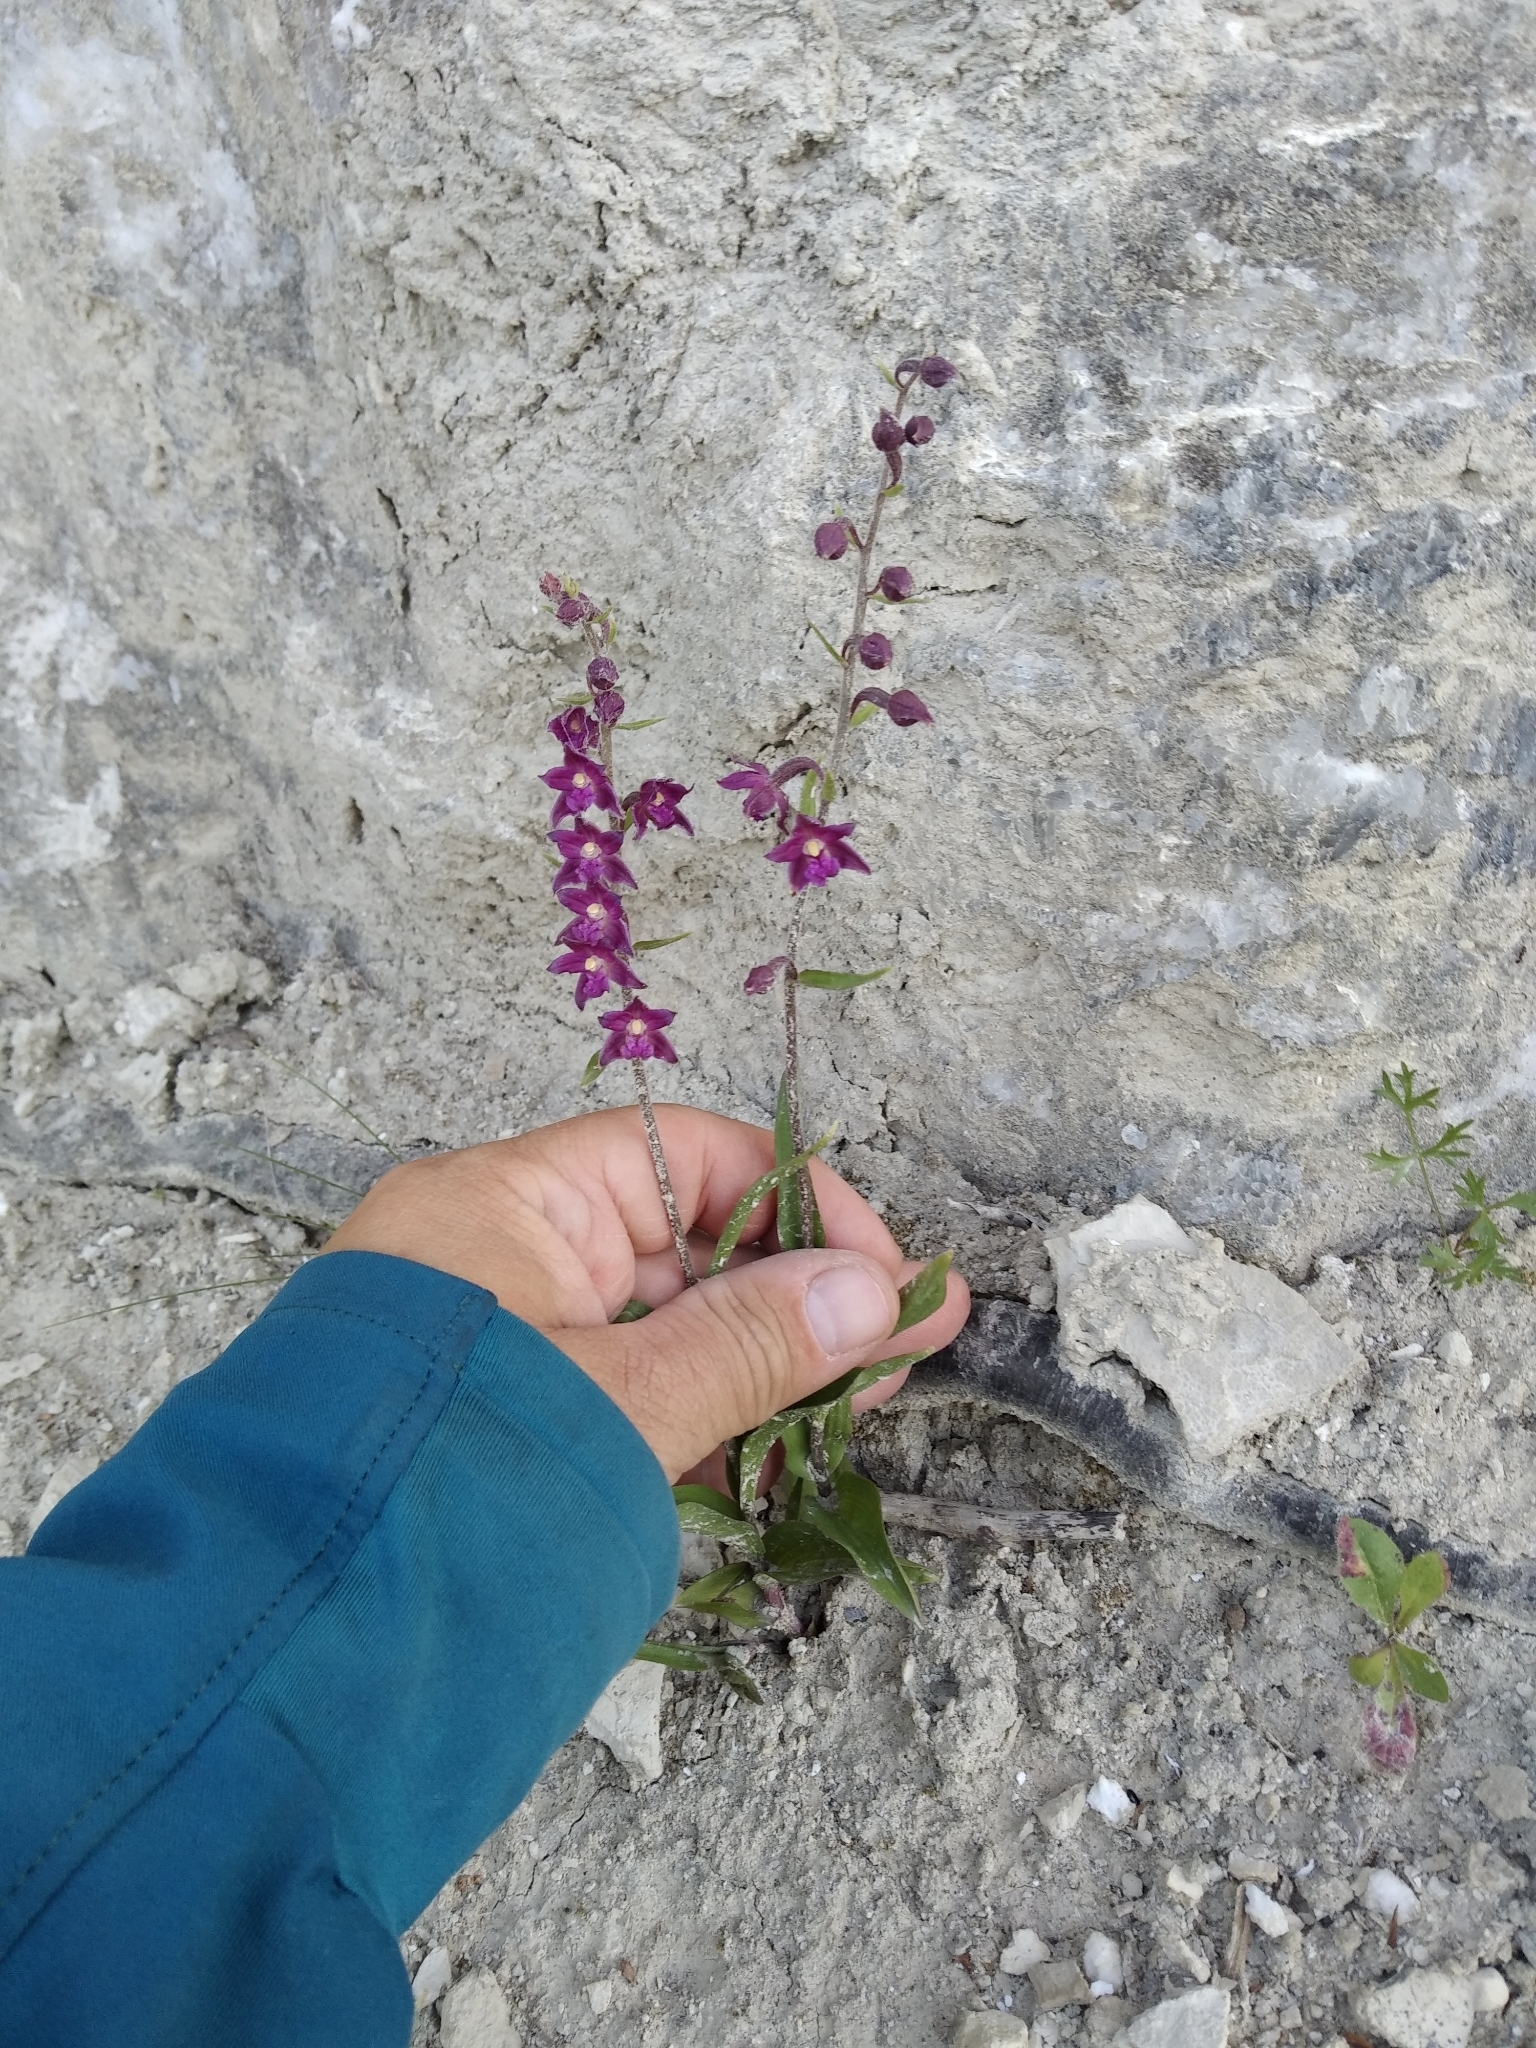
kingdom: Plantae
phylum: Tracheophyta
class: Liliopsida
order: Asparagales
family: Orchidaceae
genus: Epipactis
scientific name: Epipactis atrorubens
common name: Dark-red helleborine
